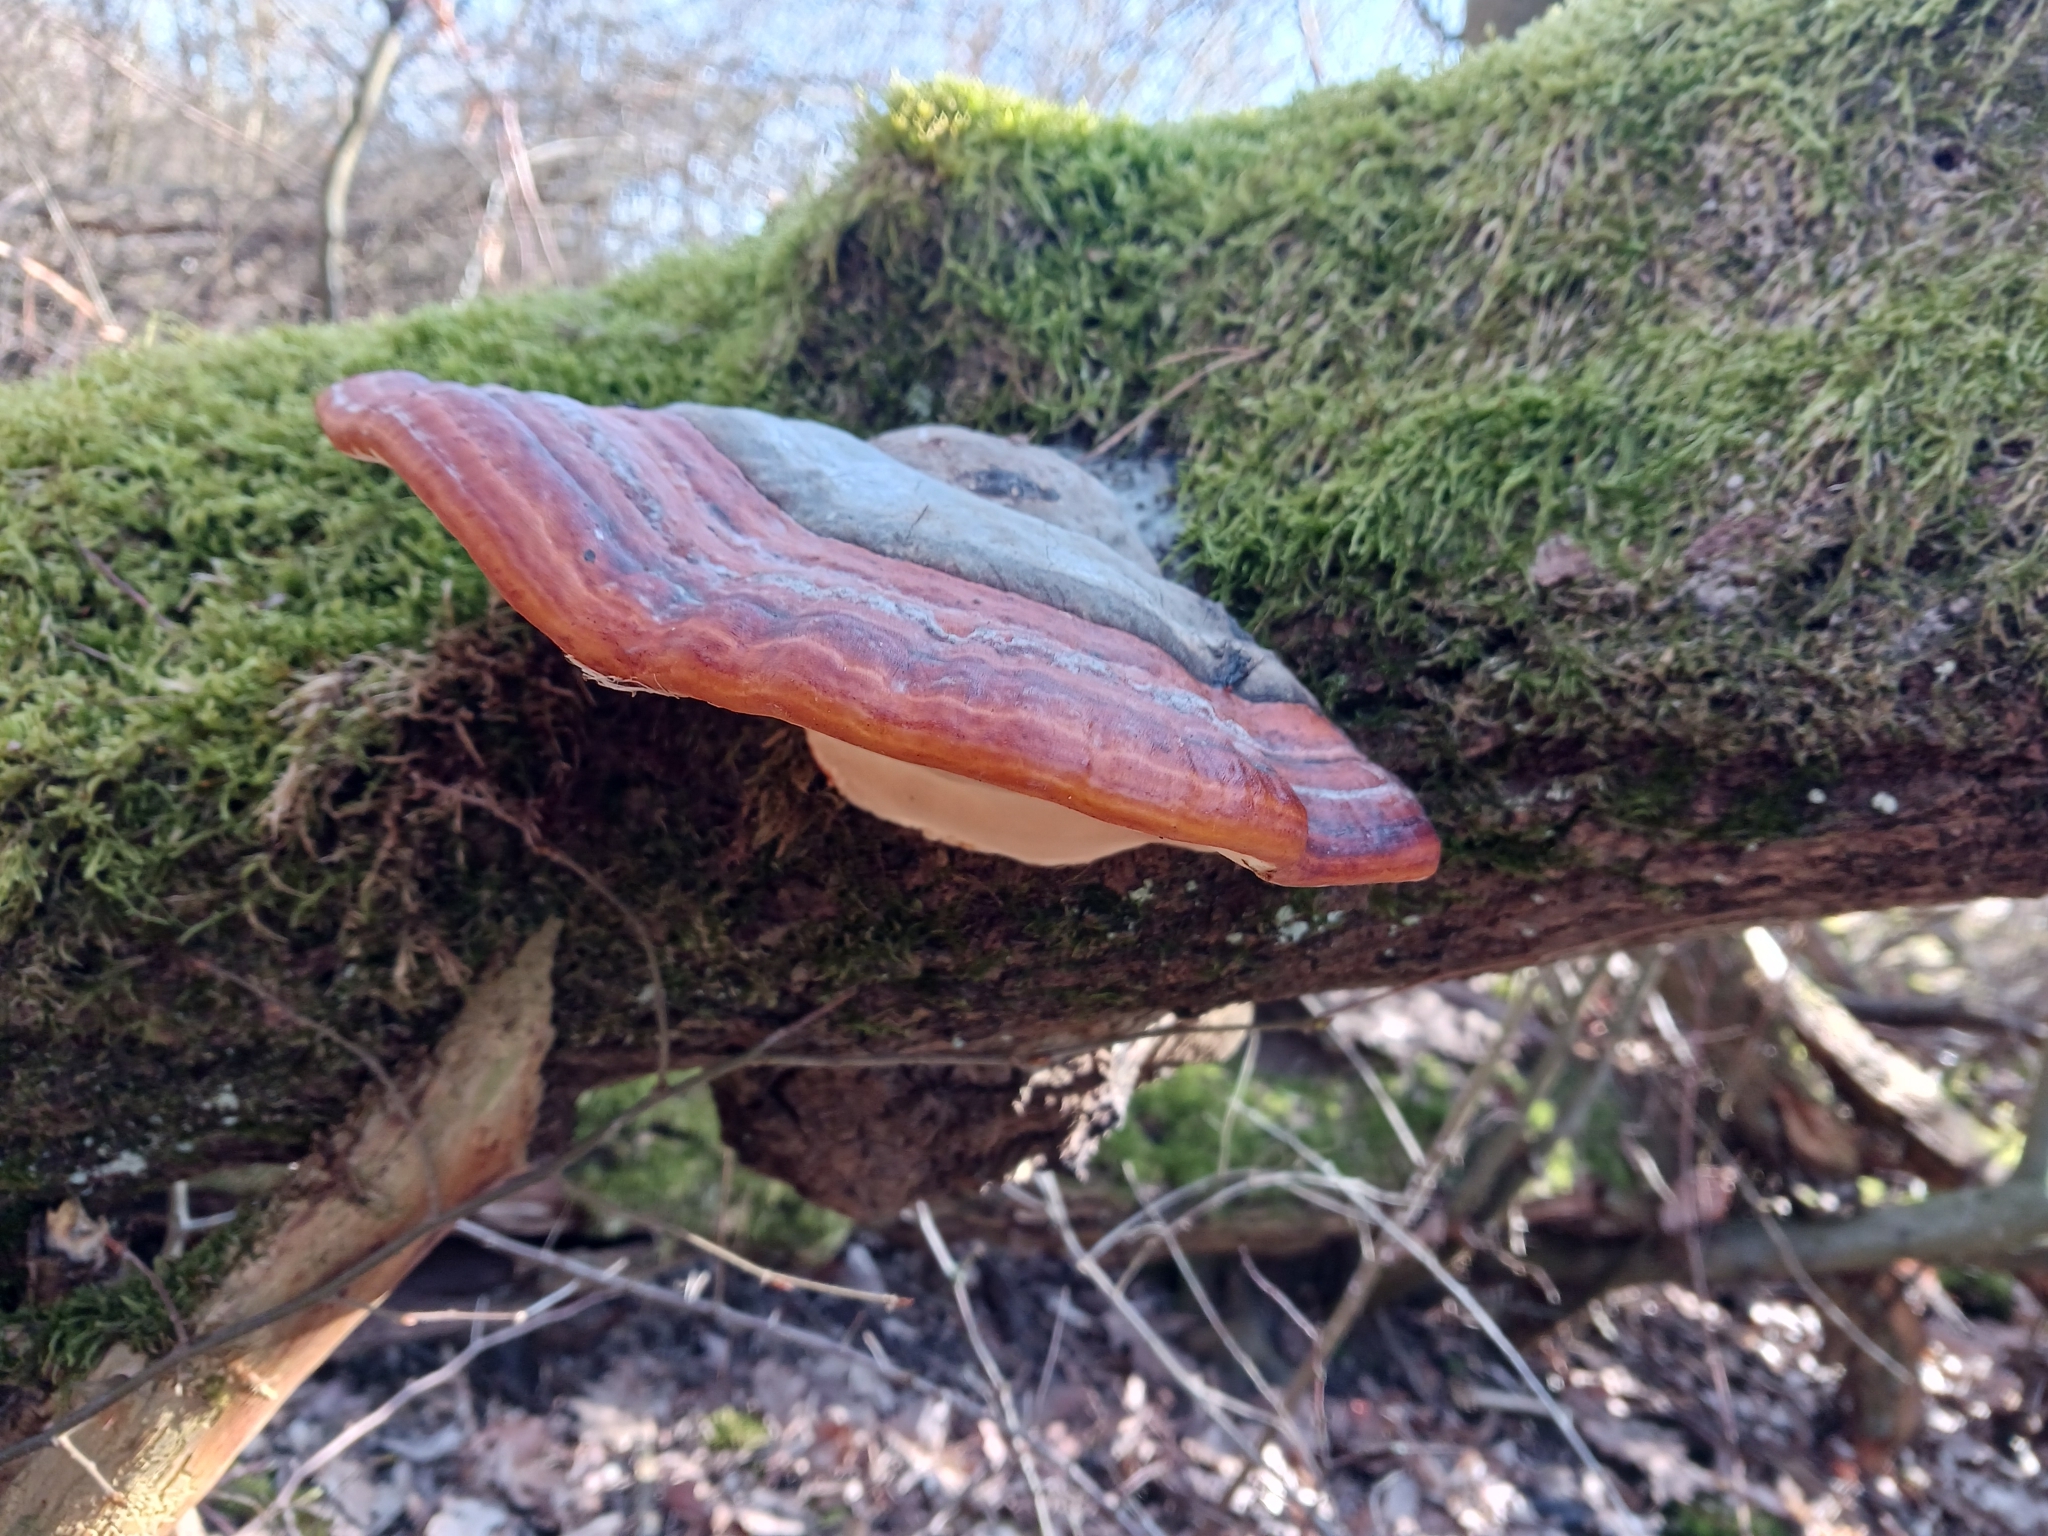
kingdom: Fungi
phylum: Basidiomycota
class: Agaricomycetes
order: Polyporales
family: Fomitopsidaceae
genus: Fomitopsis
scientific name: Fomitopsis pinicola
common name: Red-belted bracket
